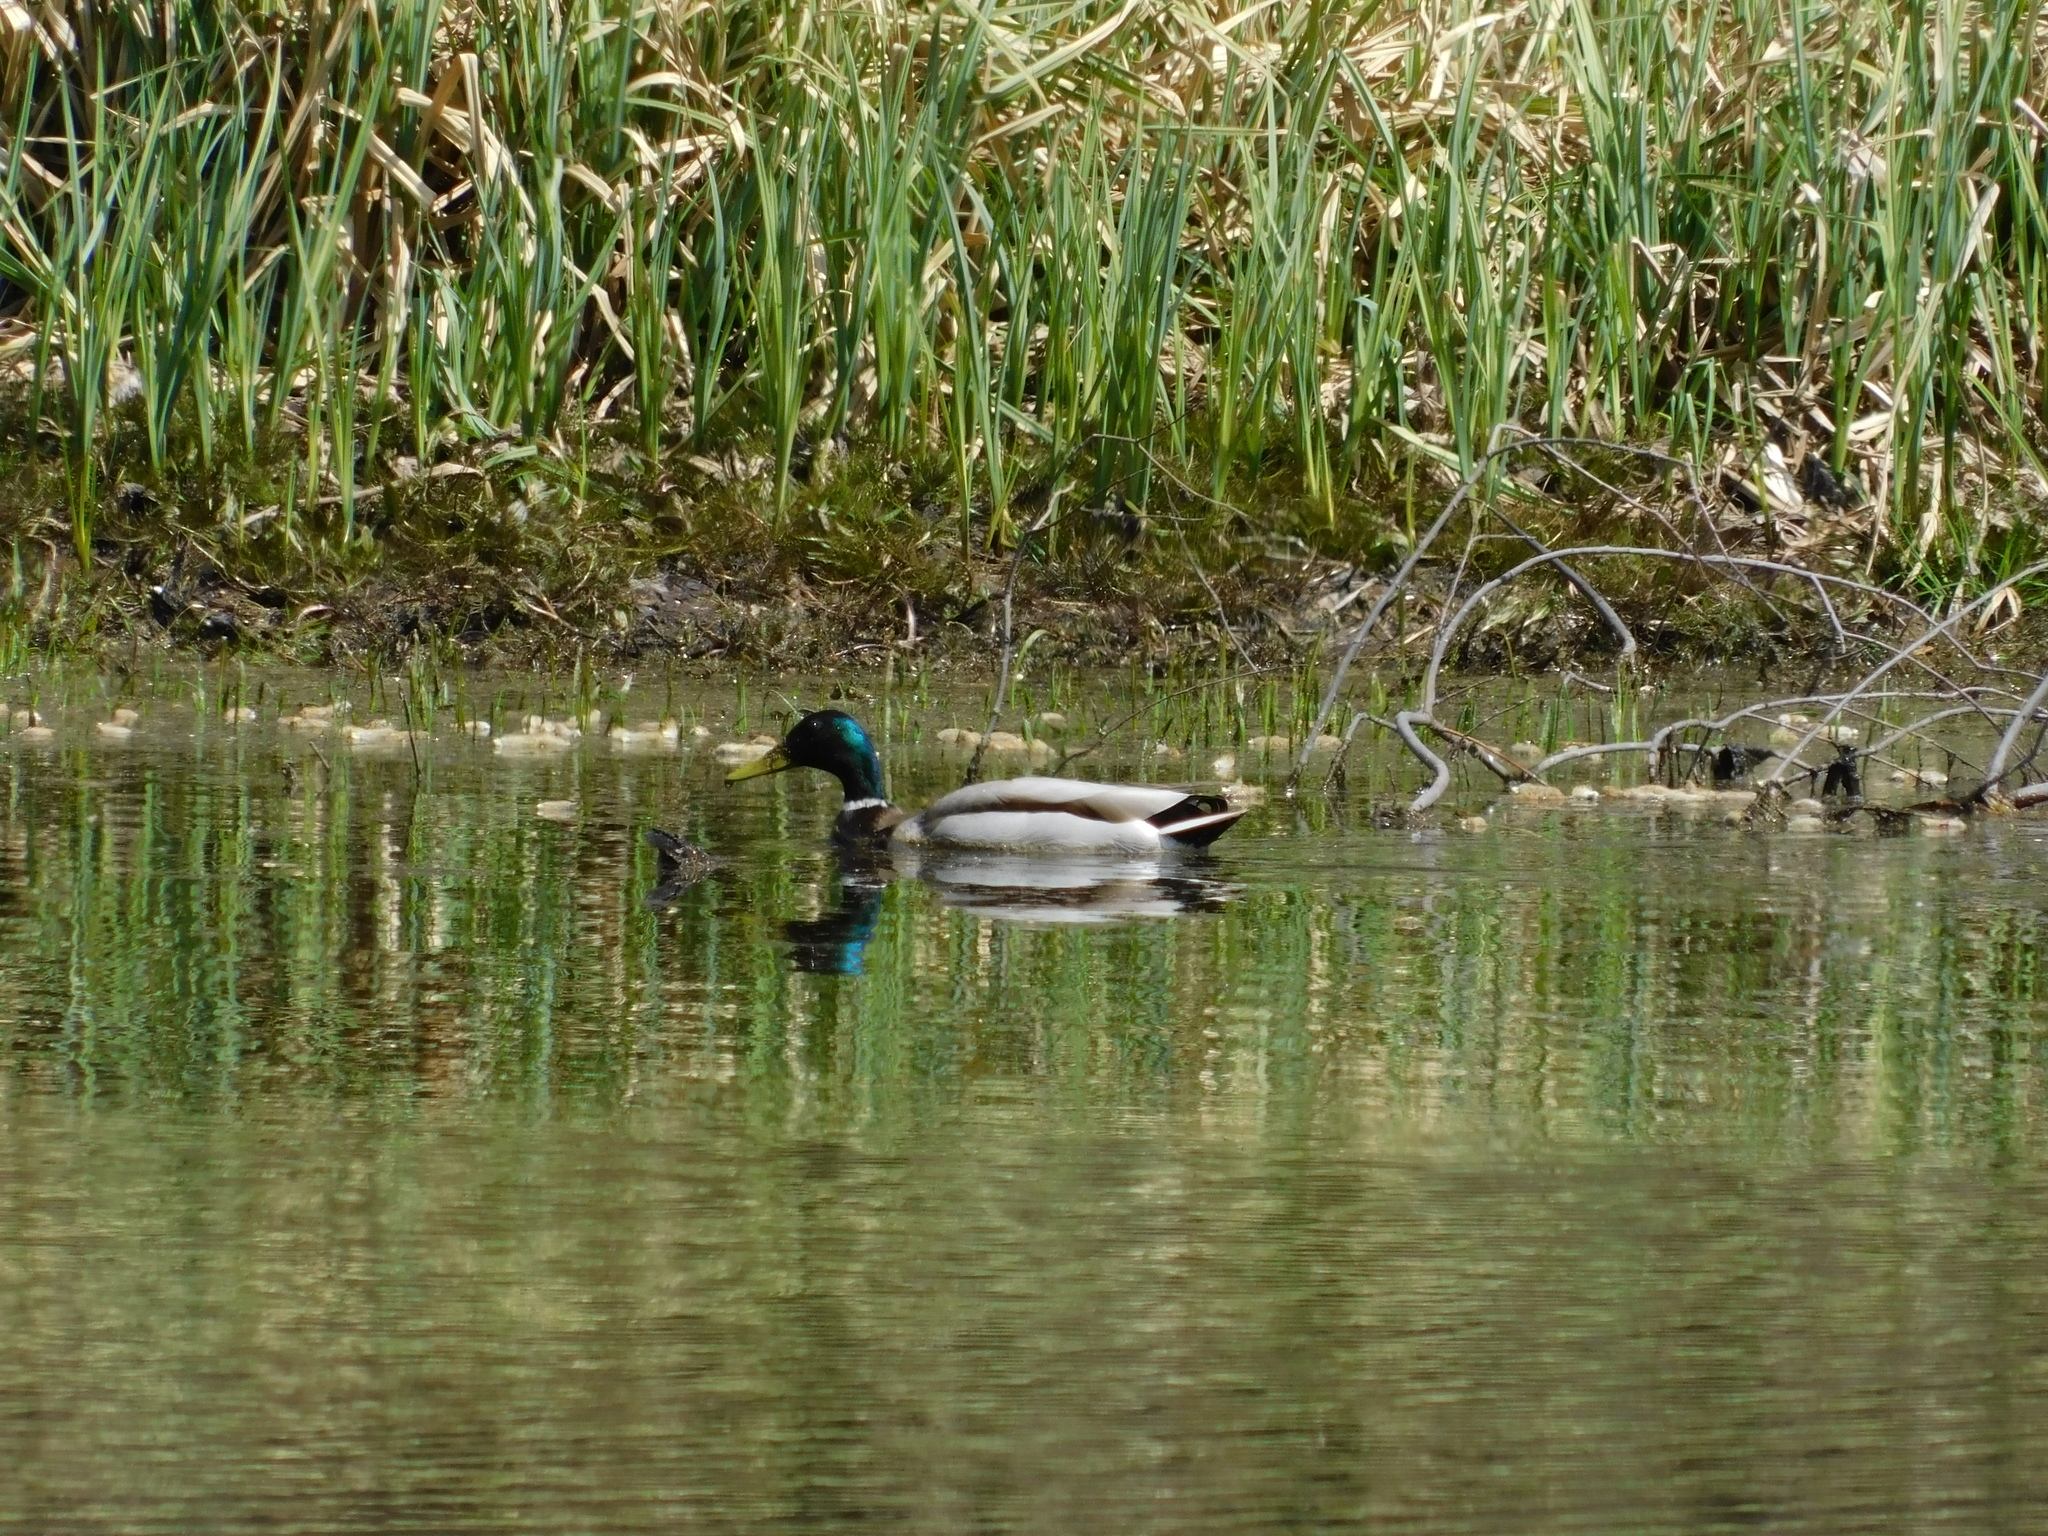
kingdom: Animalia
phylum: Chordata
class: Aves
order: Anseriformes
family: Anatidae
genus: Anas
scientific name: Anas platyrhynchos
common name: Mallard
